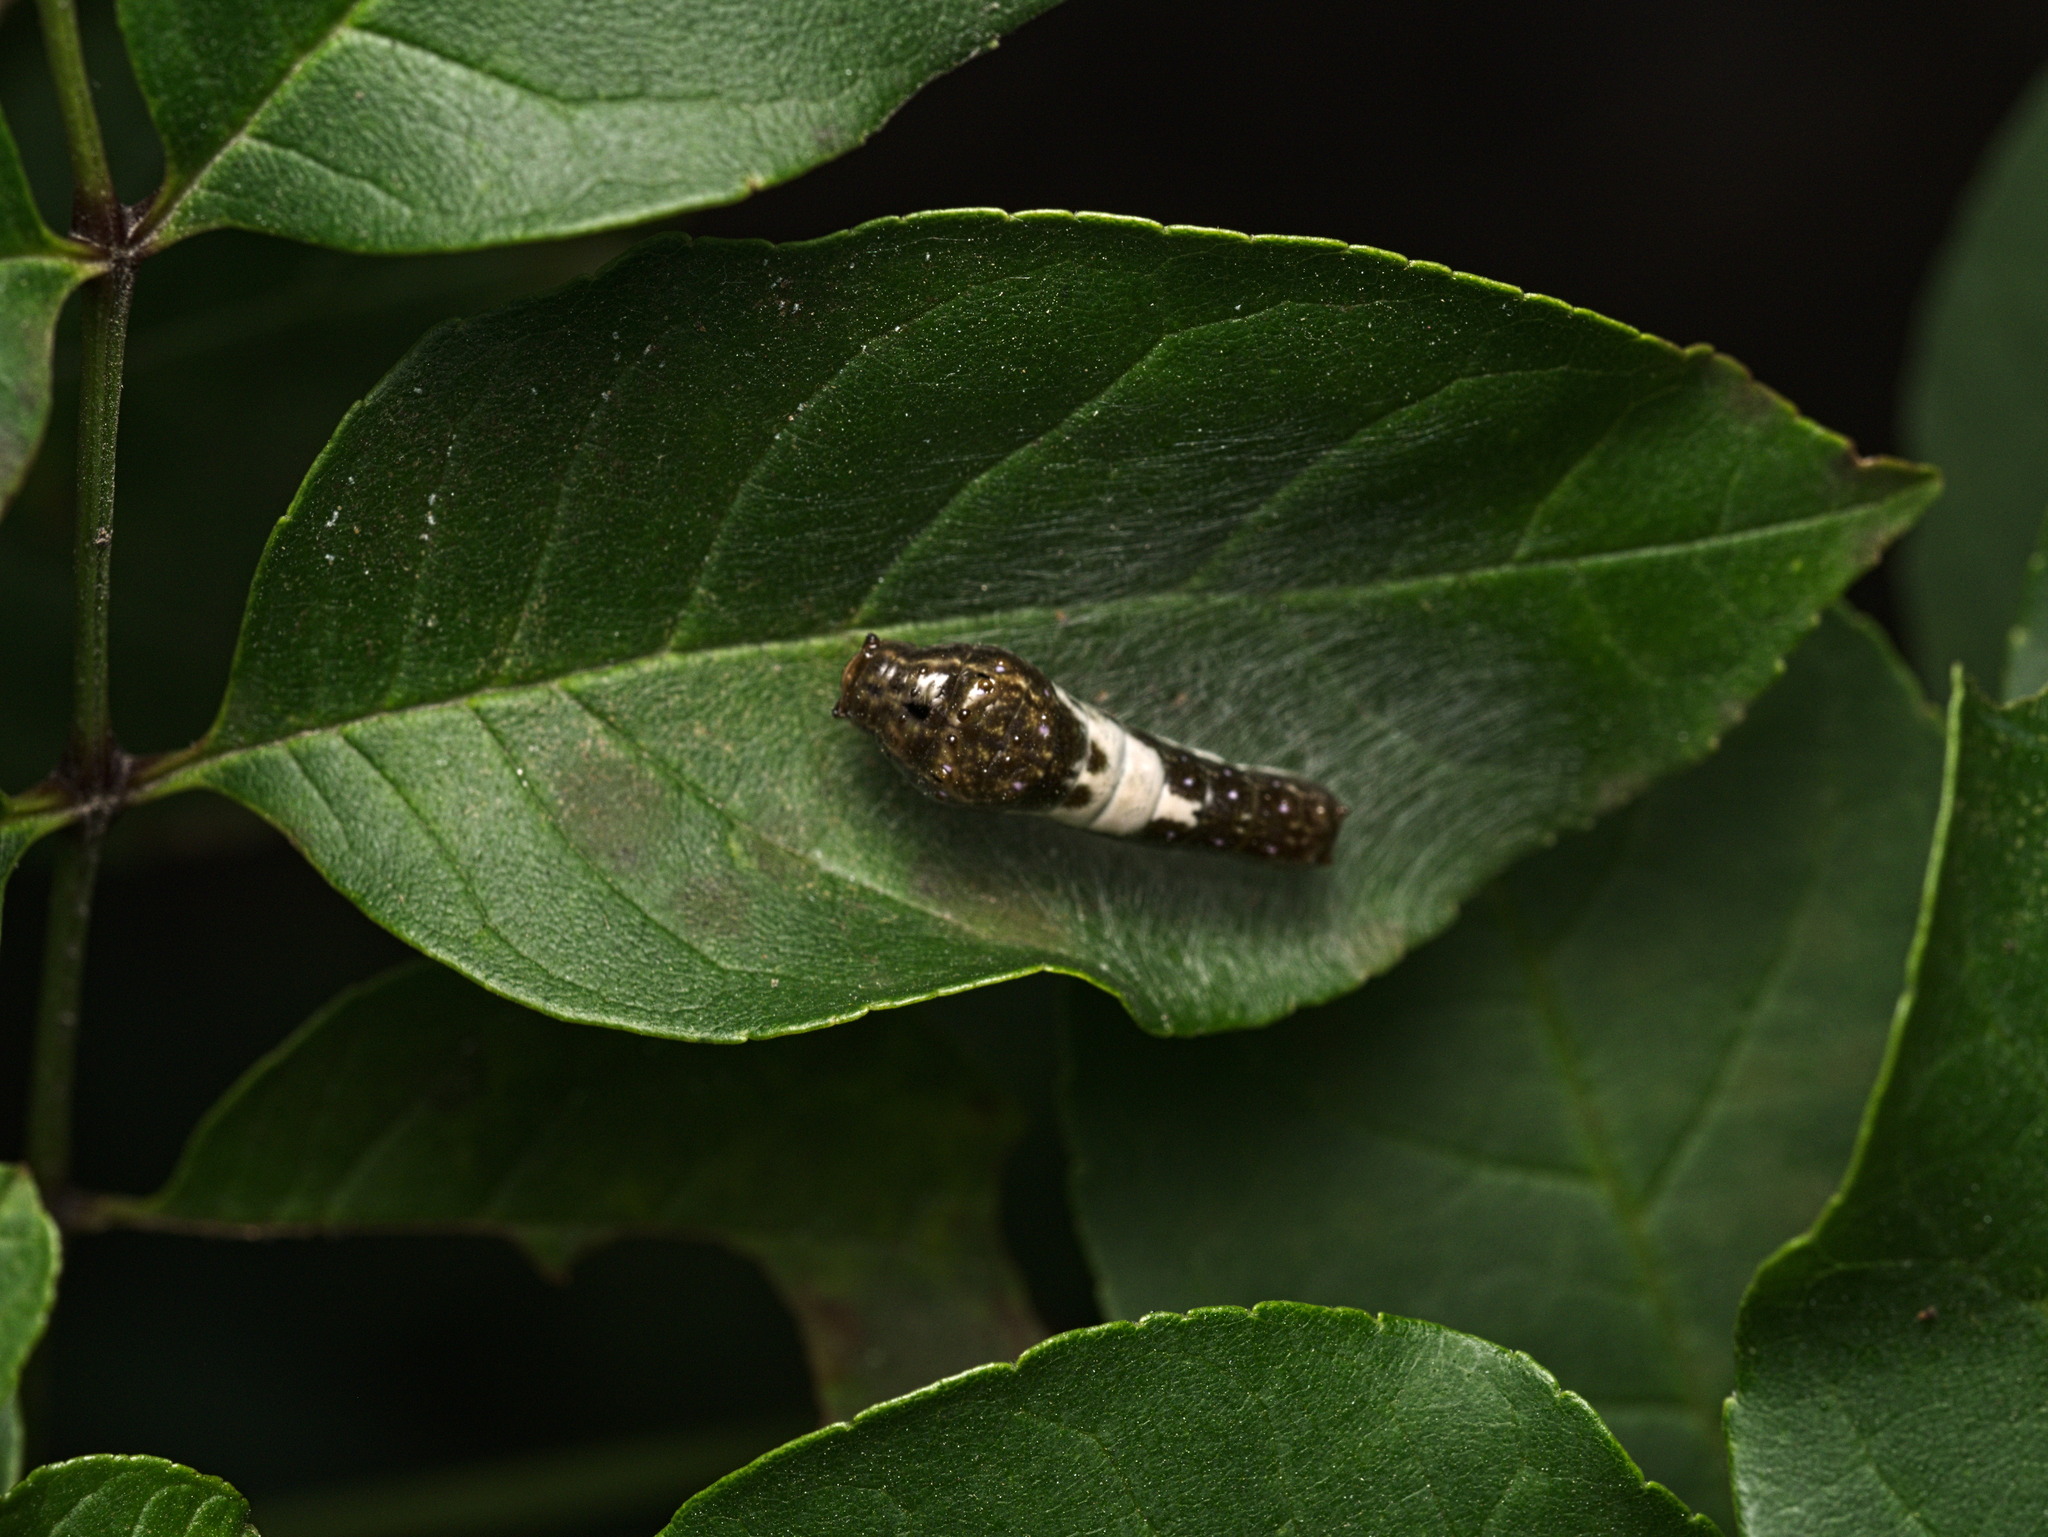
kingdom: Animalia
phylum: Arthropoda
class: Insecta
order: Lepidoptera
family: Papilionidae
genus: Papilio
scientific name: Papilio multicaudata
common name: Two-tailed tiger swallowtail
